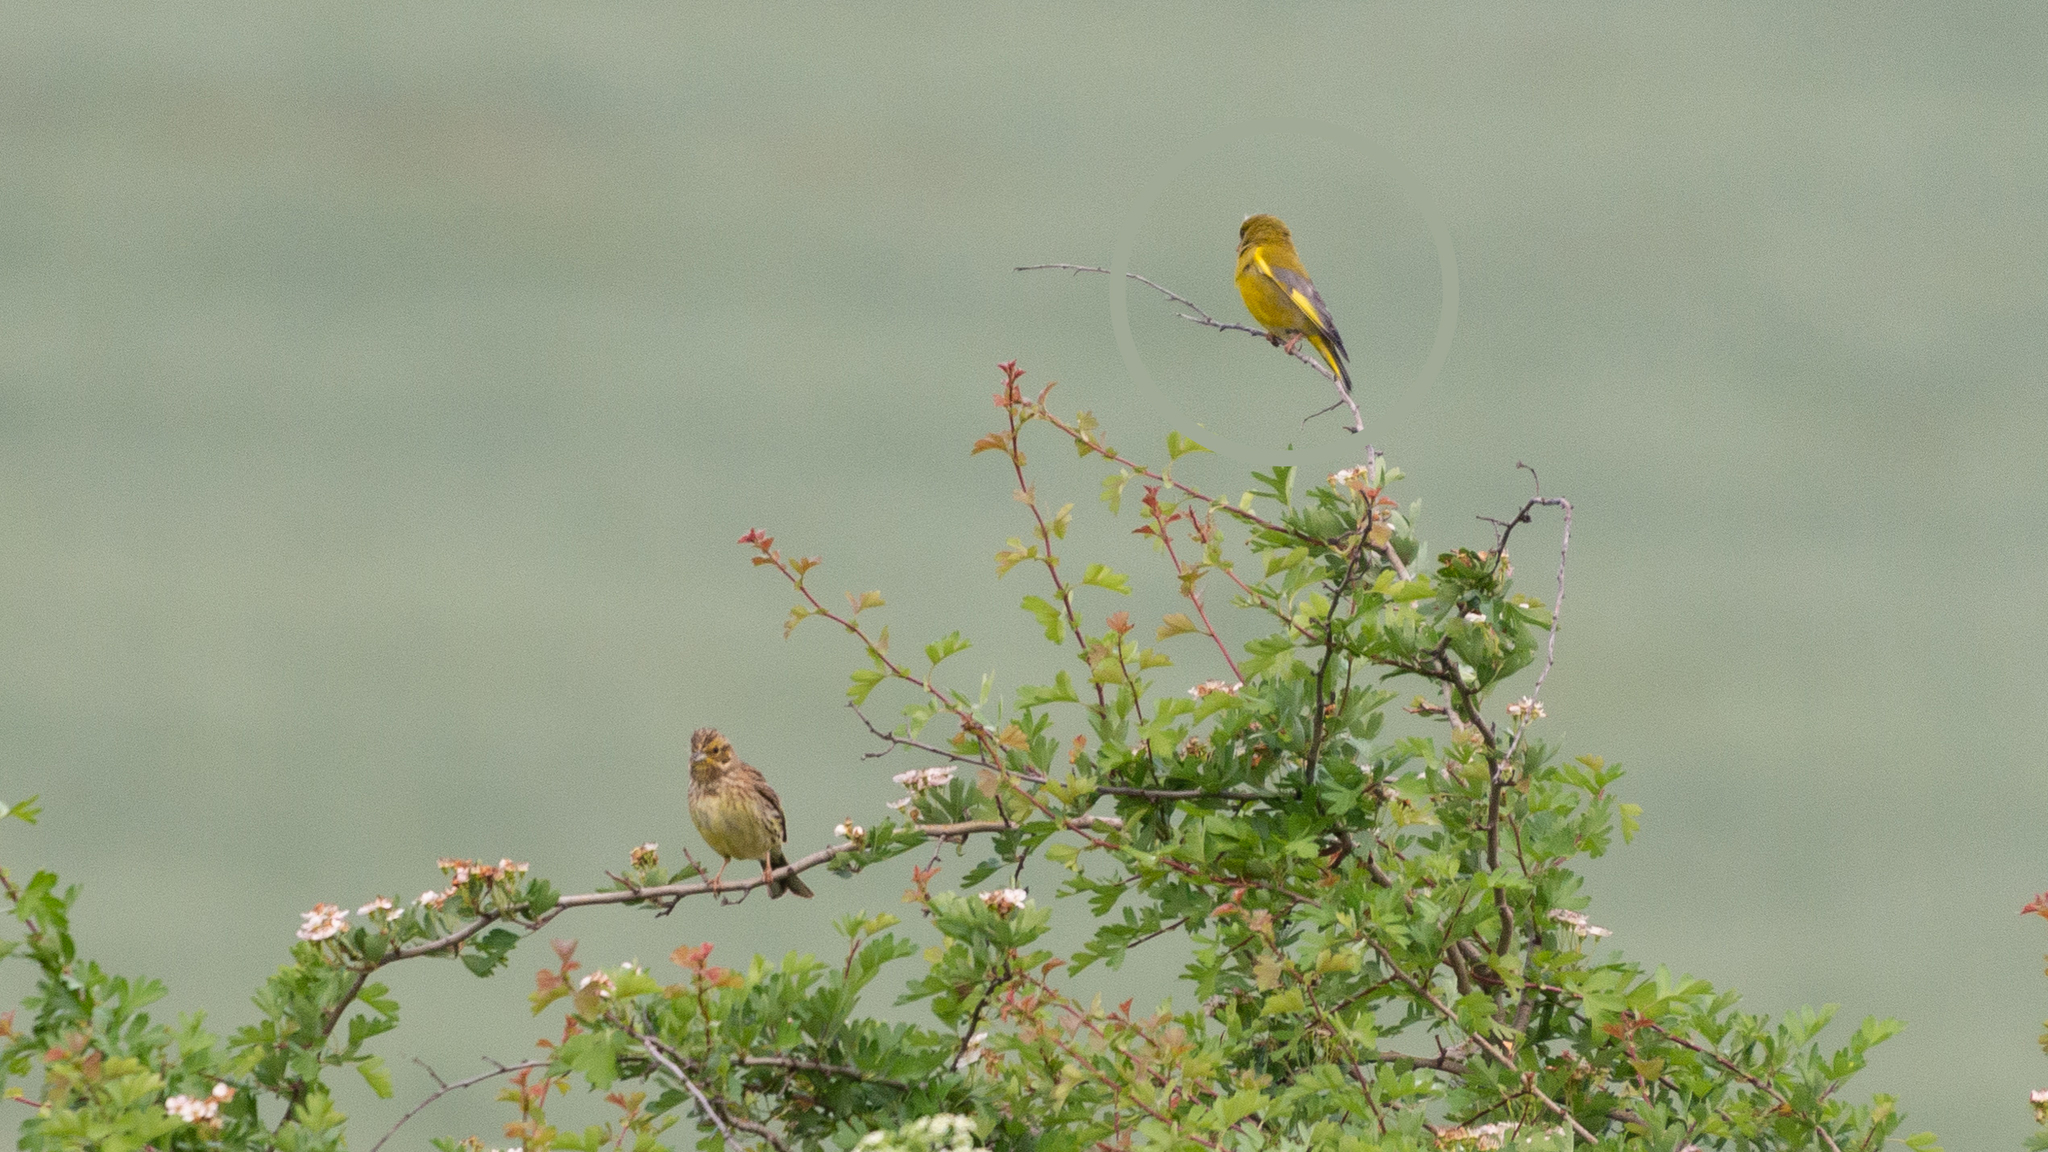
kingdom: Plantae
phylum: Tracheophyta
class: Liliopsida
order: Poales
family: Poaceae
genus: Chloris
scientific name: Chloris chloris
